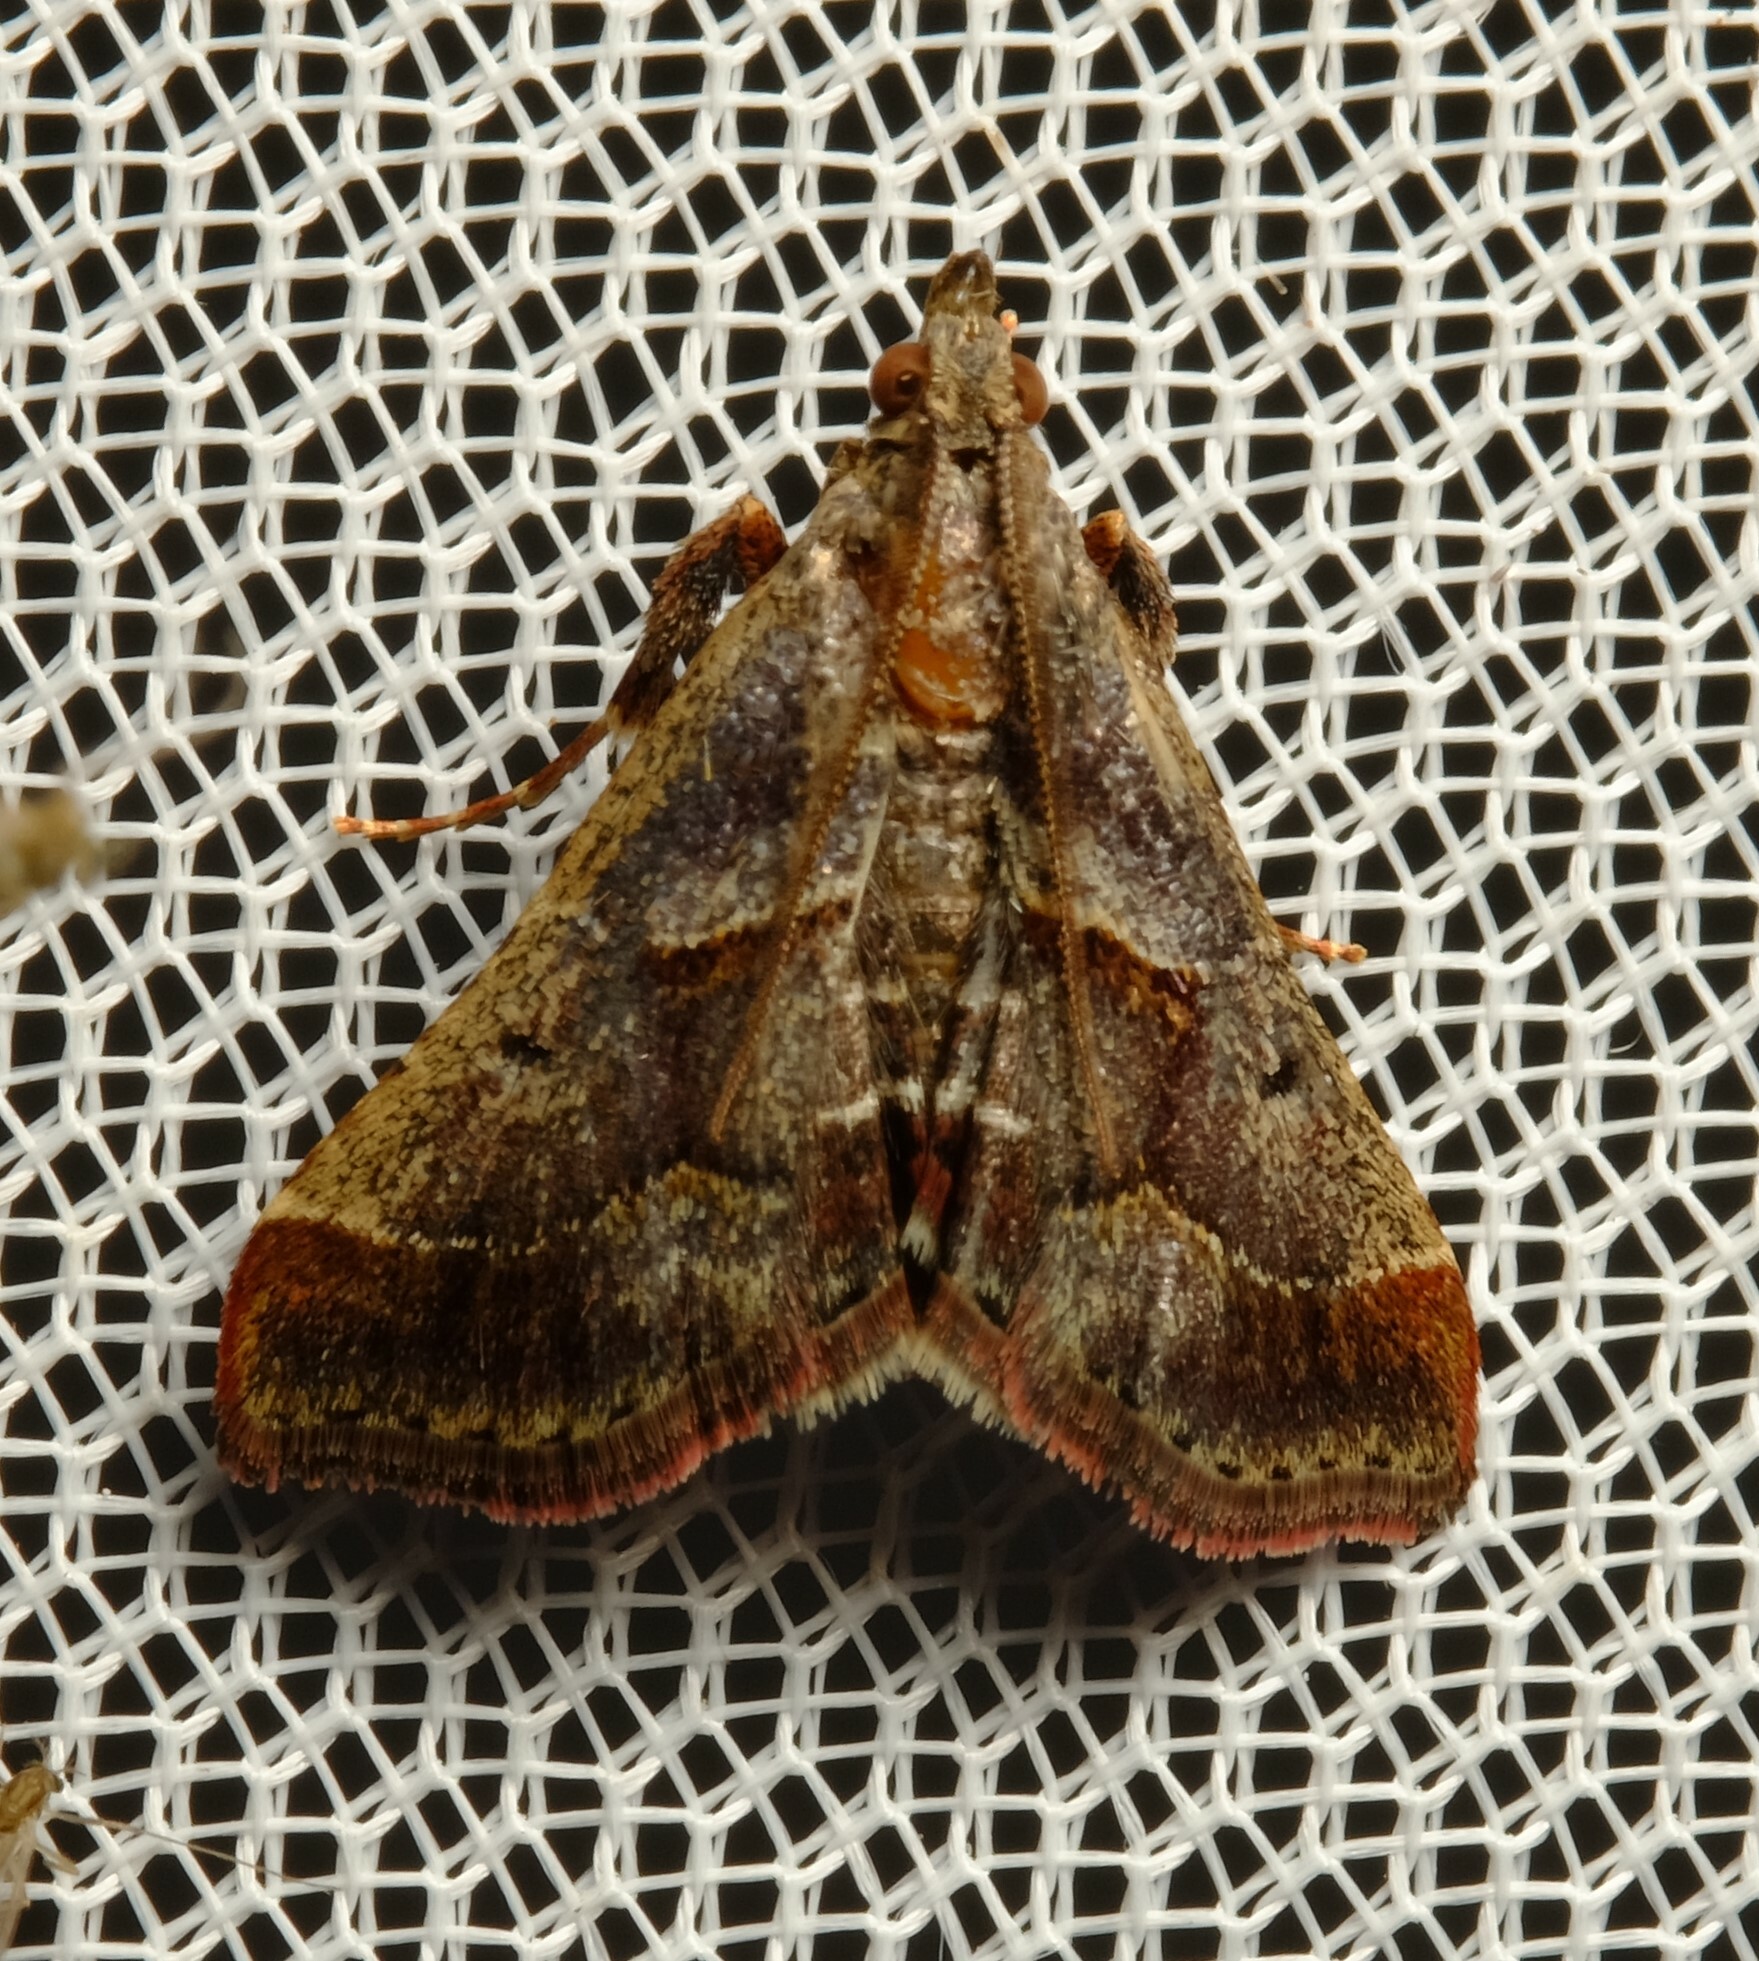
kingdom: Animalia
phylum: Arthropoda
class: Insecta
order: Lepidoptera
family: Pyralidae
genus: Gauna
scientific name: Gauna aegusalis
